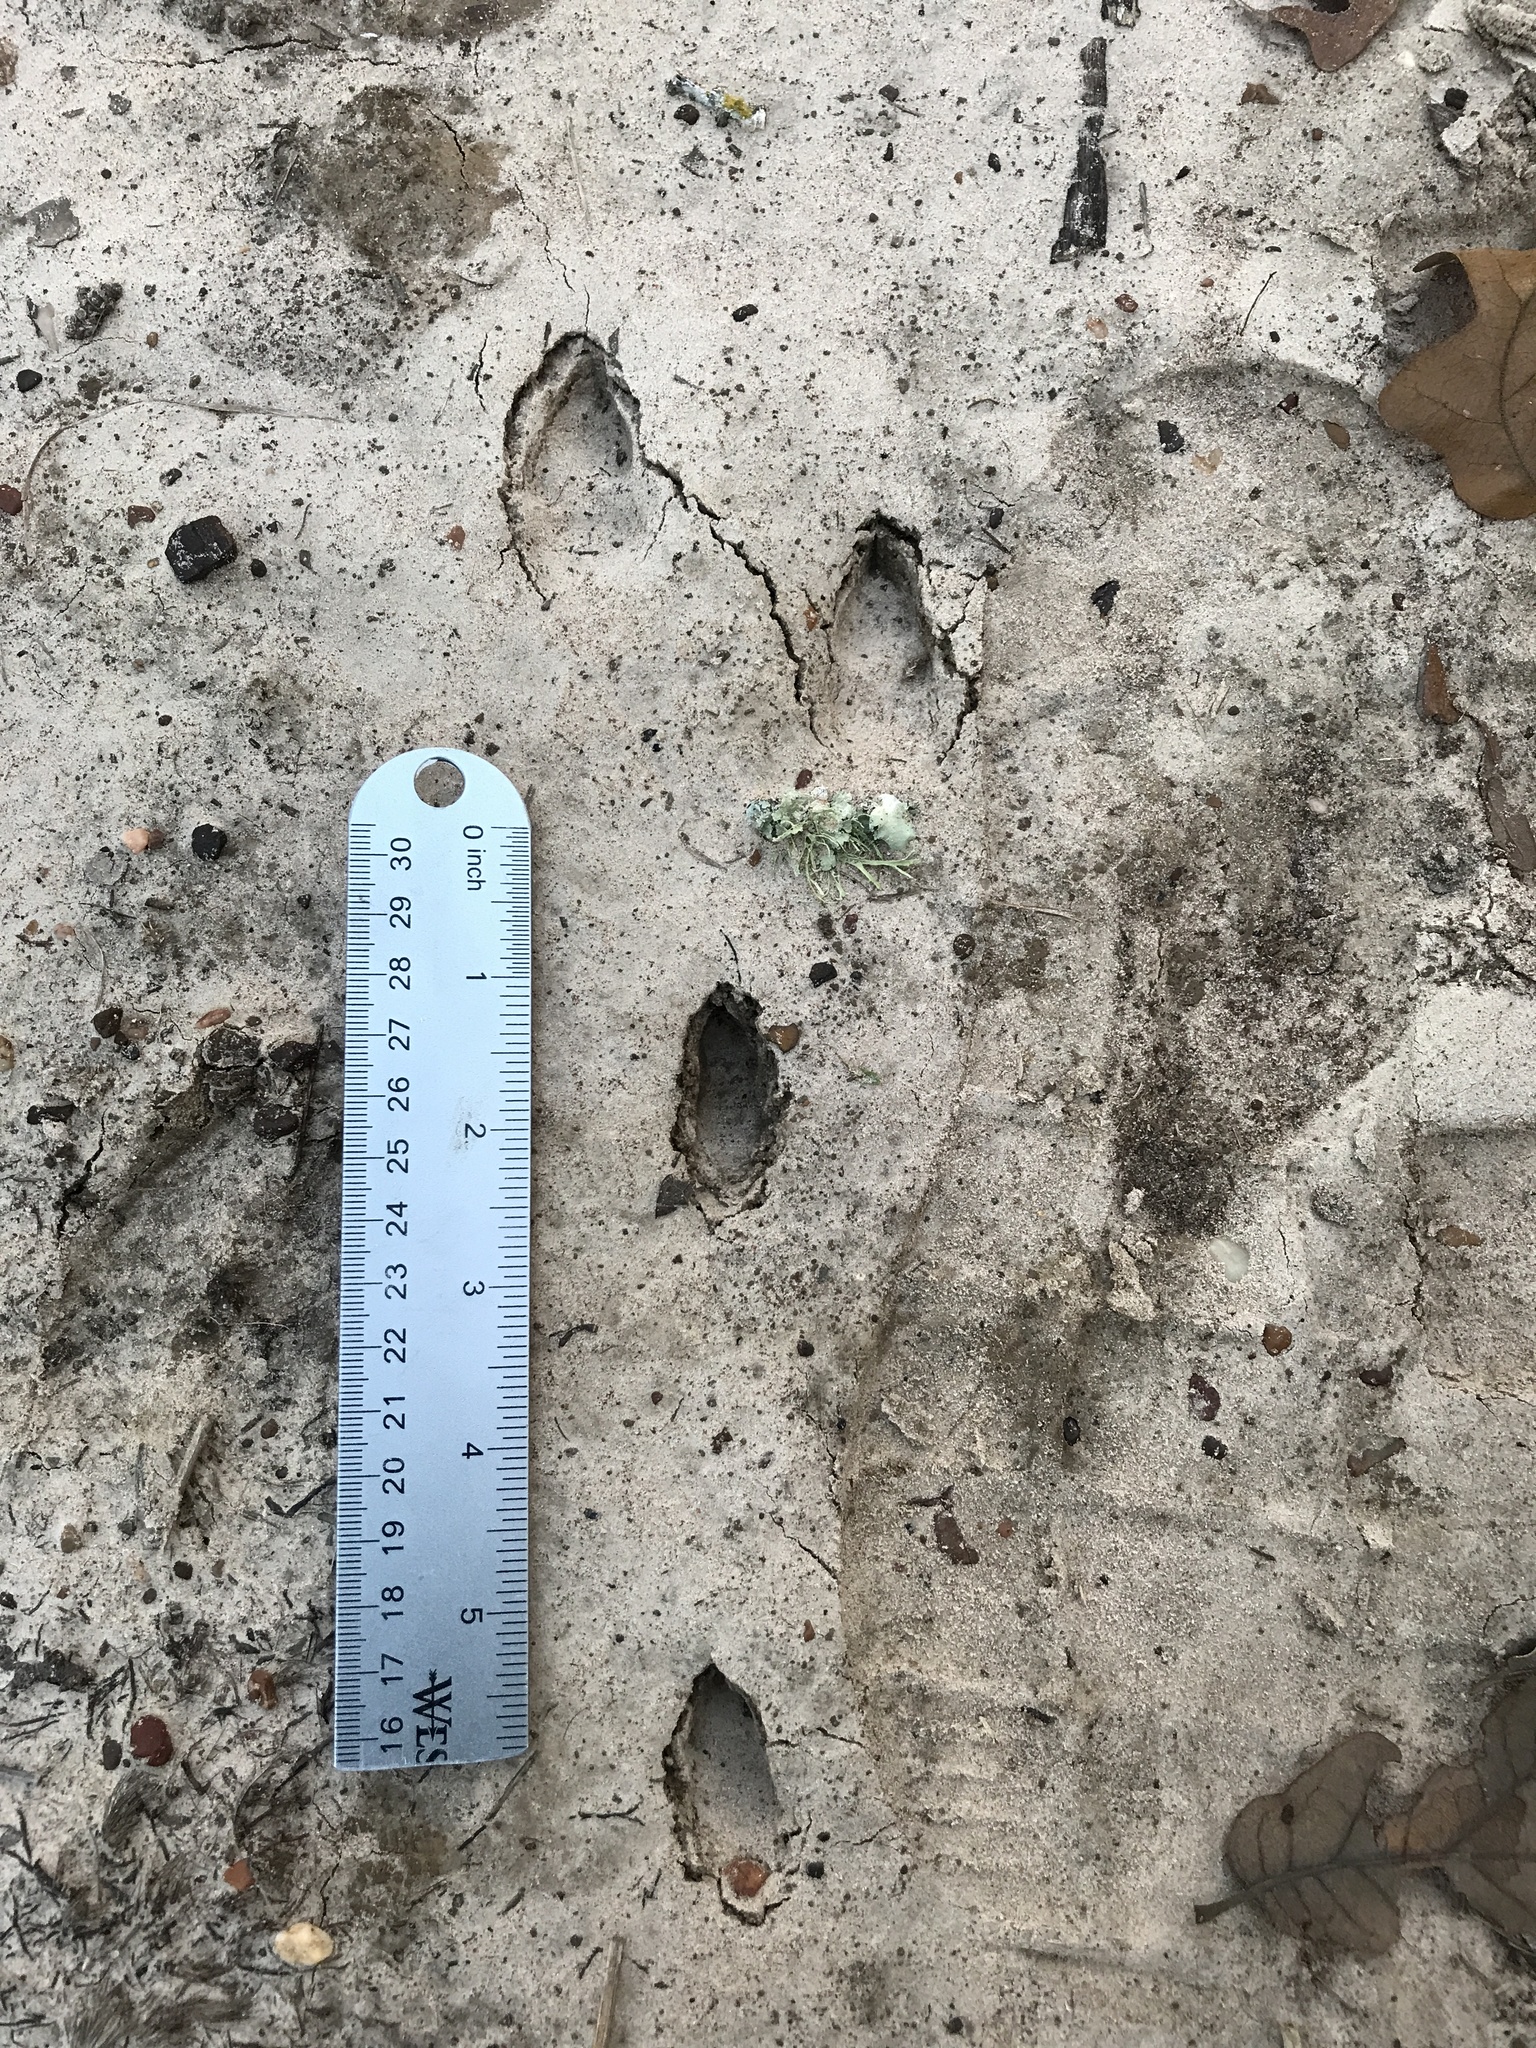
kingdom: Animalia
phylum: Chordata
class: Mammalia
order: Lagomorpha
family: Leporidae
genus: Sylvilagus
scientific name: Sylvilagus floridanus
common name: Eastern cottontail
